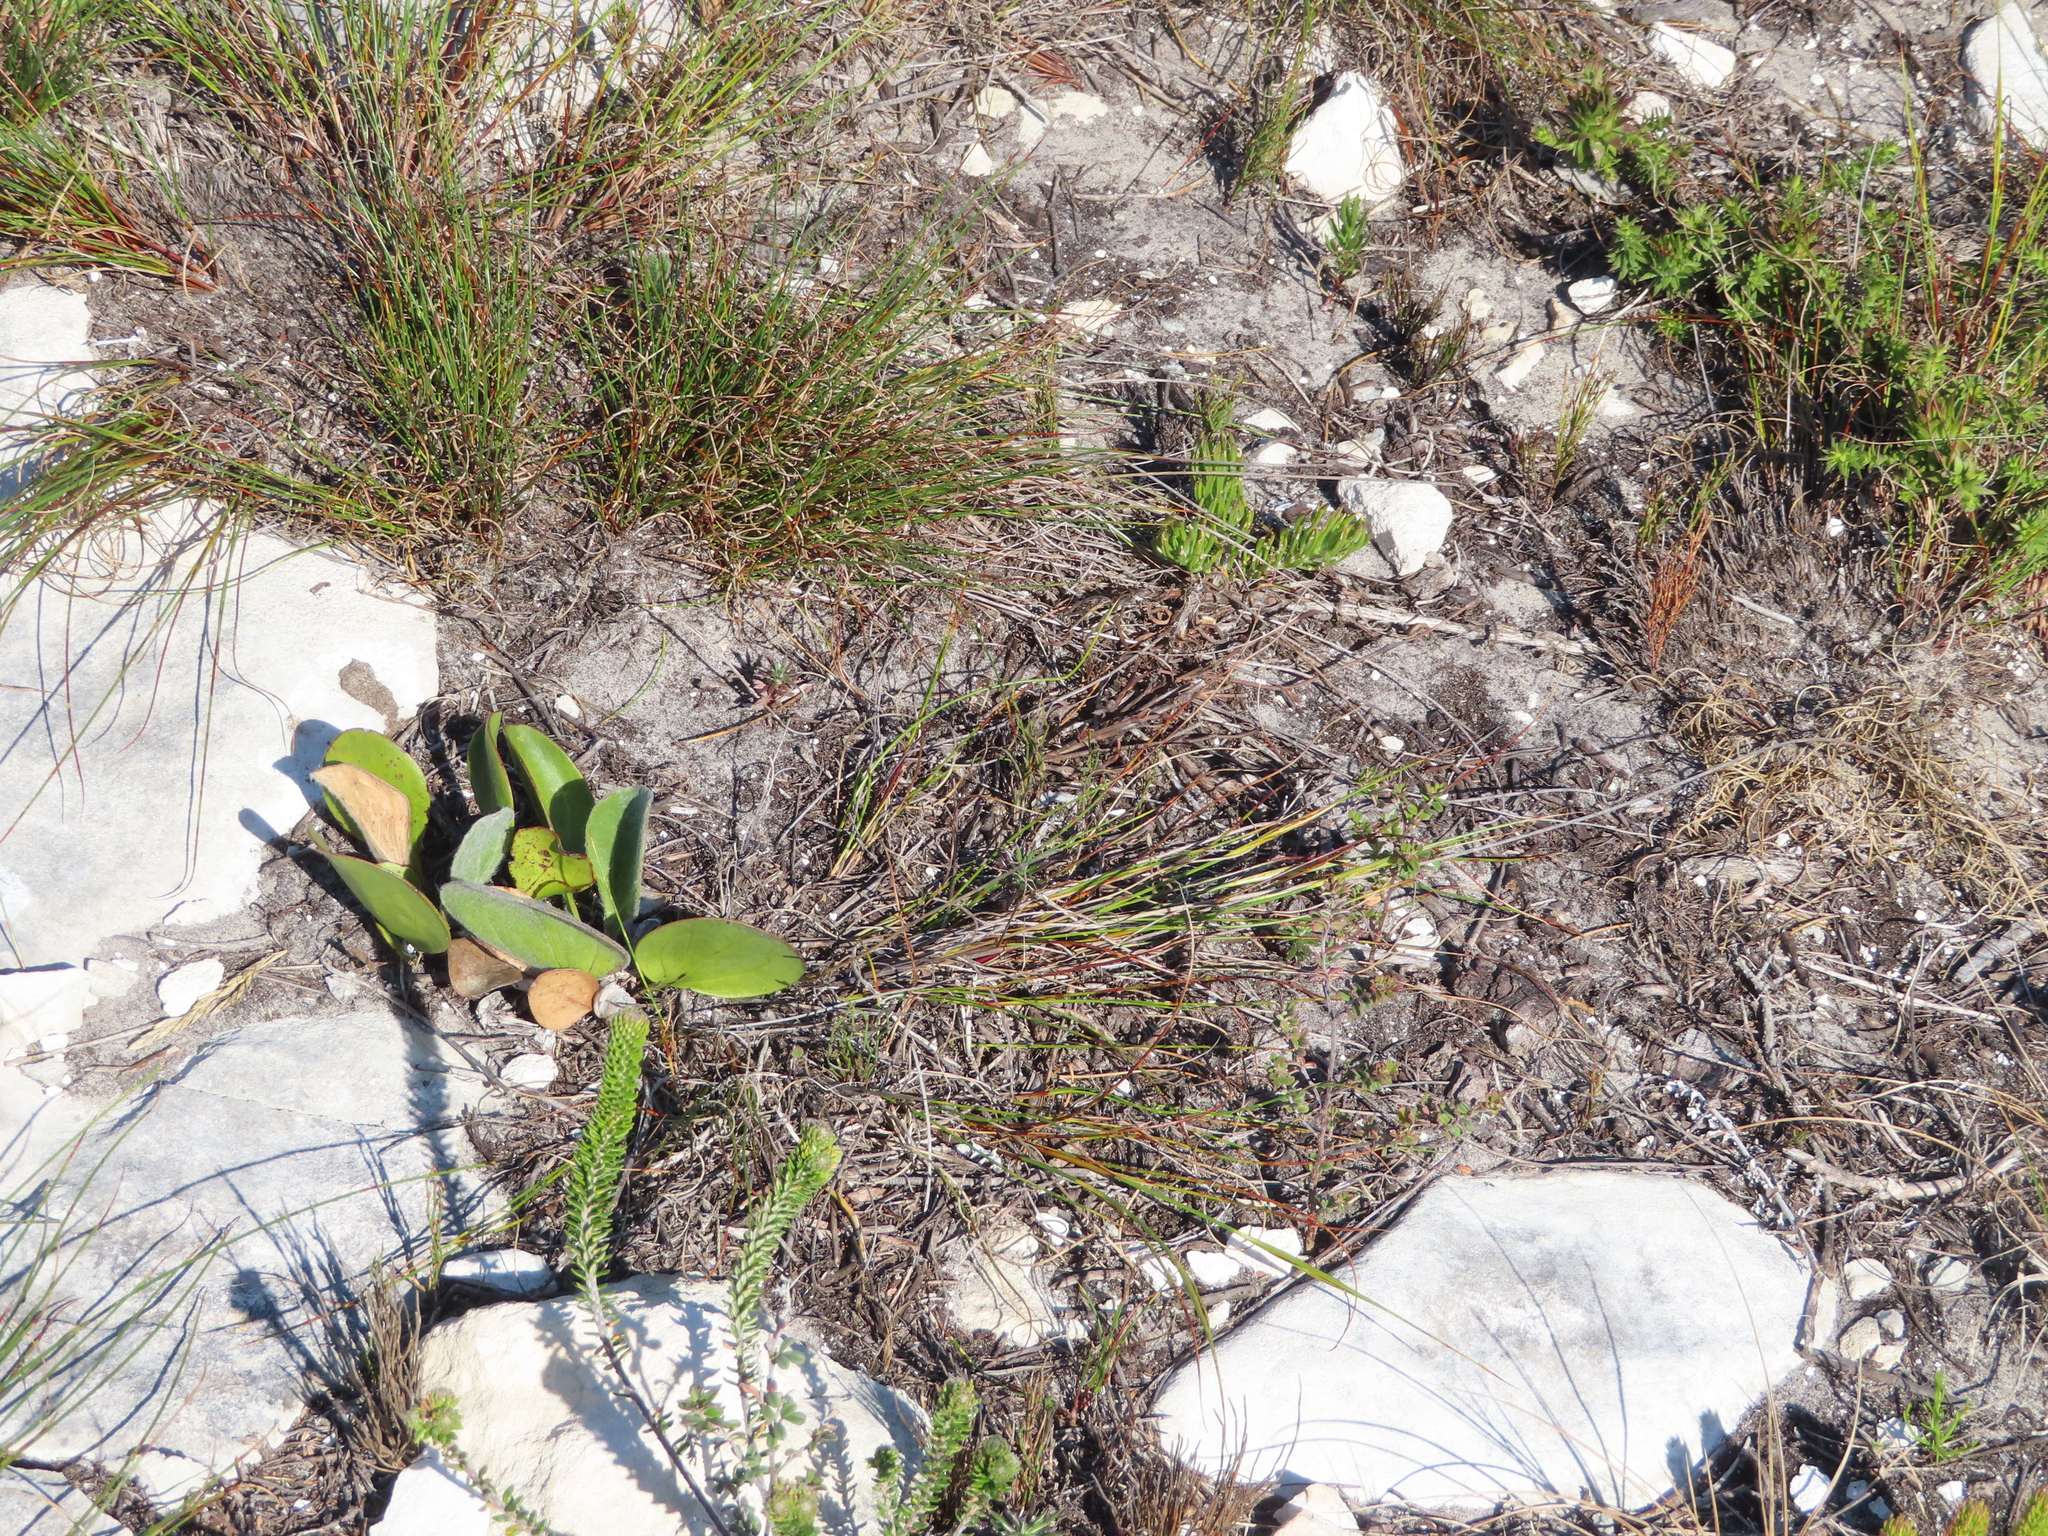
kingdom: Plantae
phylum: Tracheophyta
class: Magnoliopsida
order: Asterales
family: Asteraceae
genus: Mairia
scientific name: Mairia coriacea
